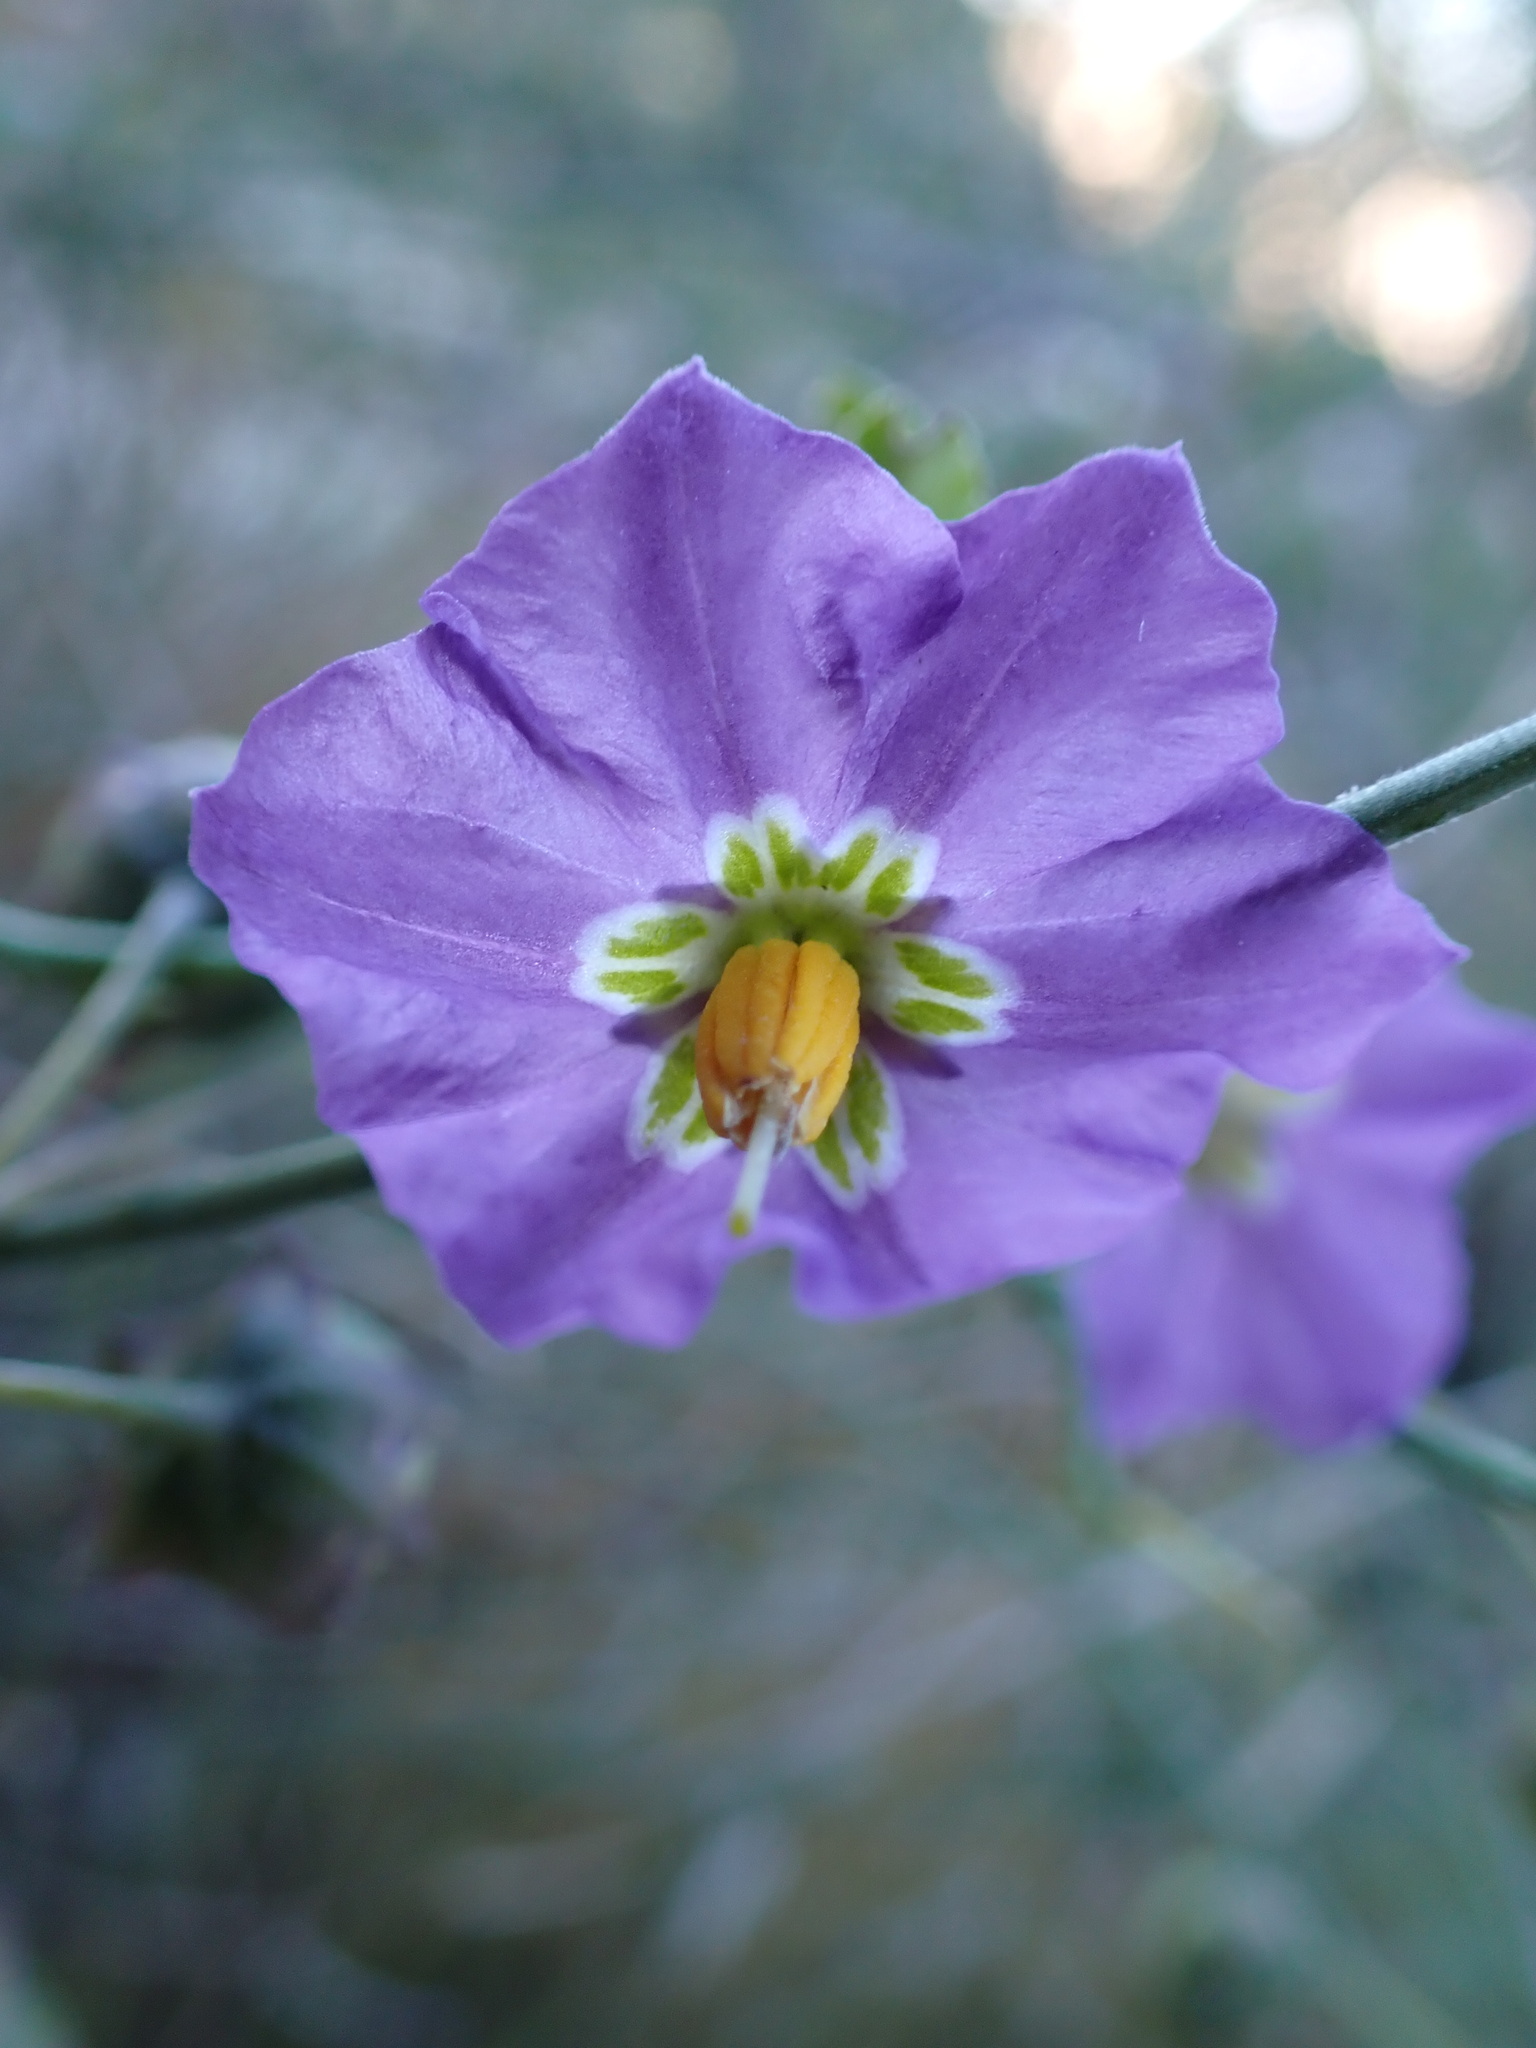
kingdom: Plantae
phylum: Tracheophyta
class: Magnoliopsida
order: Solanales
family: Solanaceae
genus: Solanum
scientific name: Solanum umbelliferum
